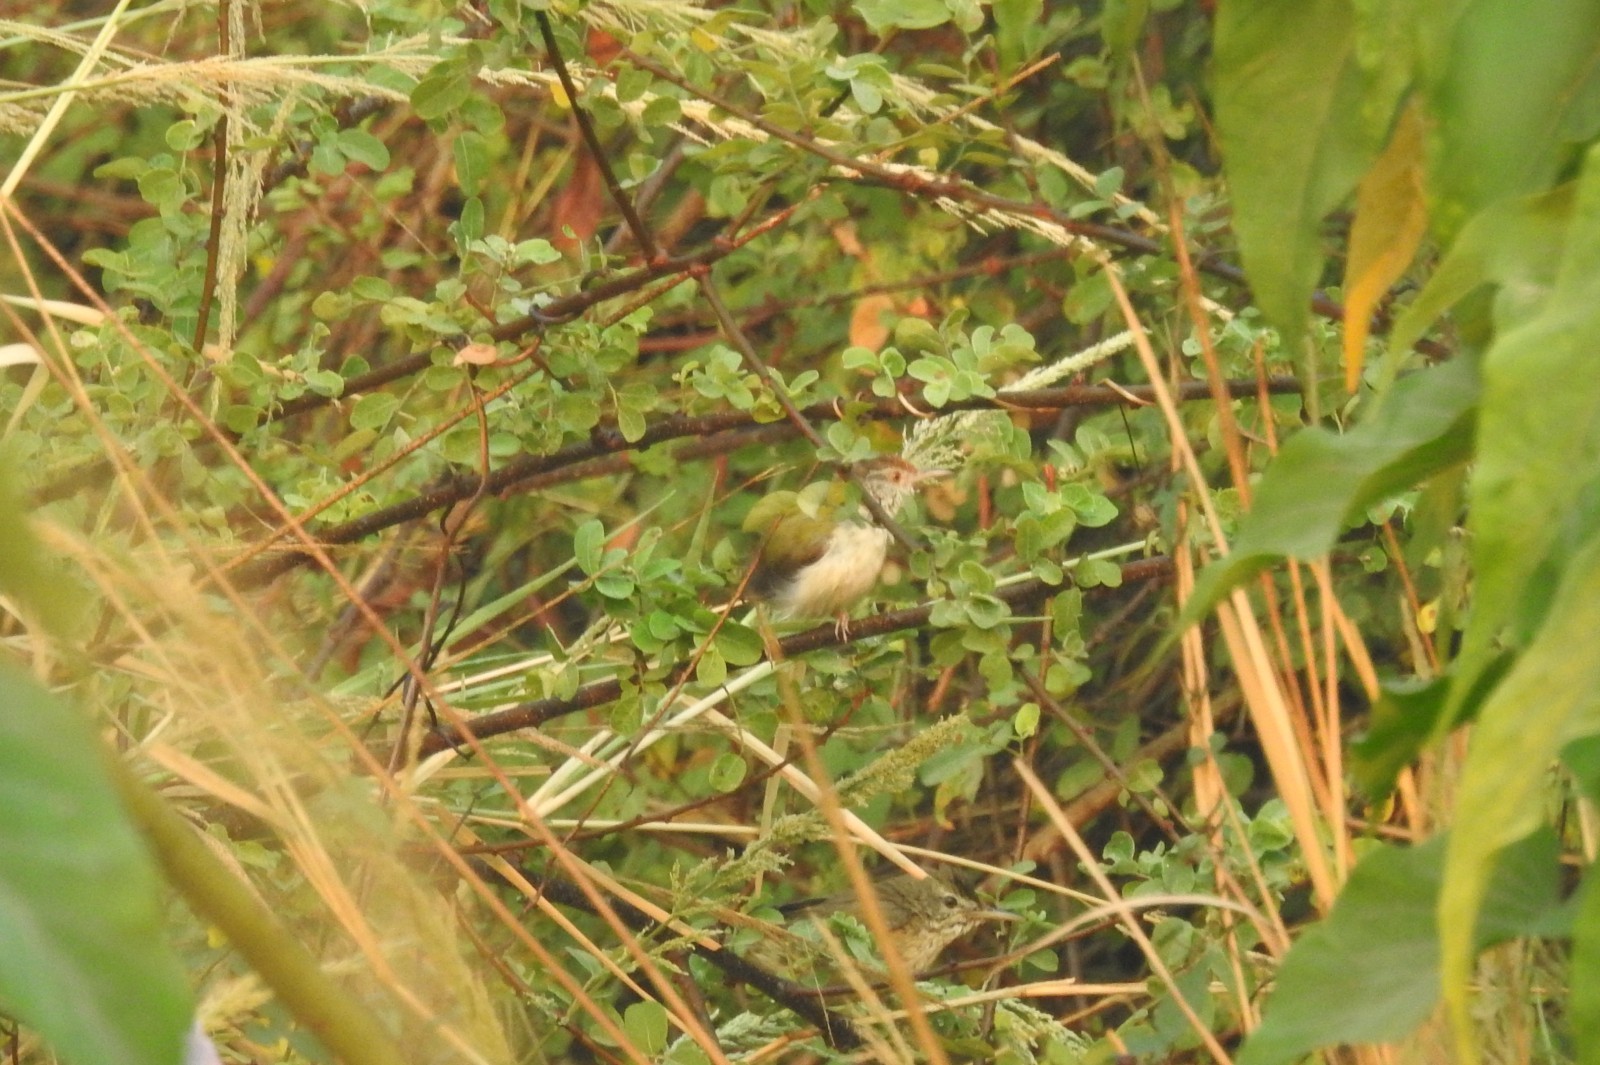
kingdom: Animalia
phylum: Chordata
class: Aves
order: Passeriformes
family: Cisticolidae
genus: Orthotomus
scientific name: Orthotomus sutorius
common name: Common tailorbird
